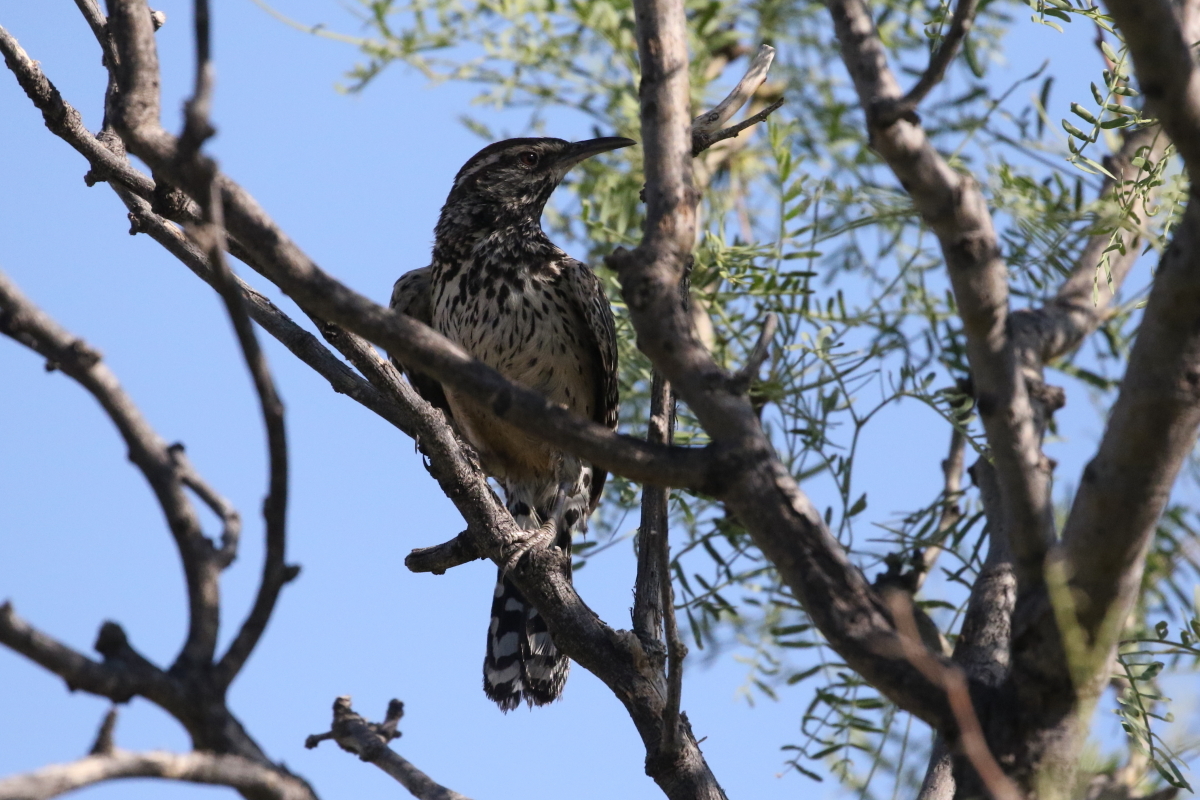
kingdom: Animalia
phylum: Chordata
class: Aves
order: Passeriformes
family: Troglodytidae
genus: Campylorhynchus
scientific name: Campylorhynchus brunneicapillus
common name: Cactus wren
